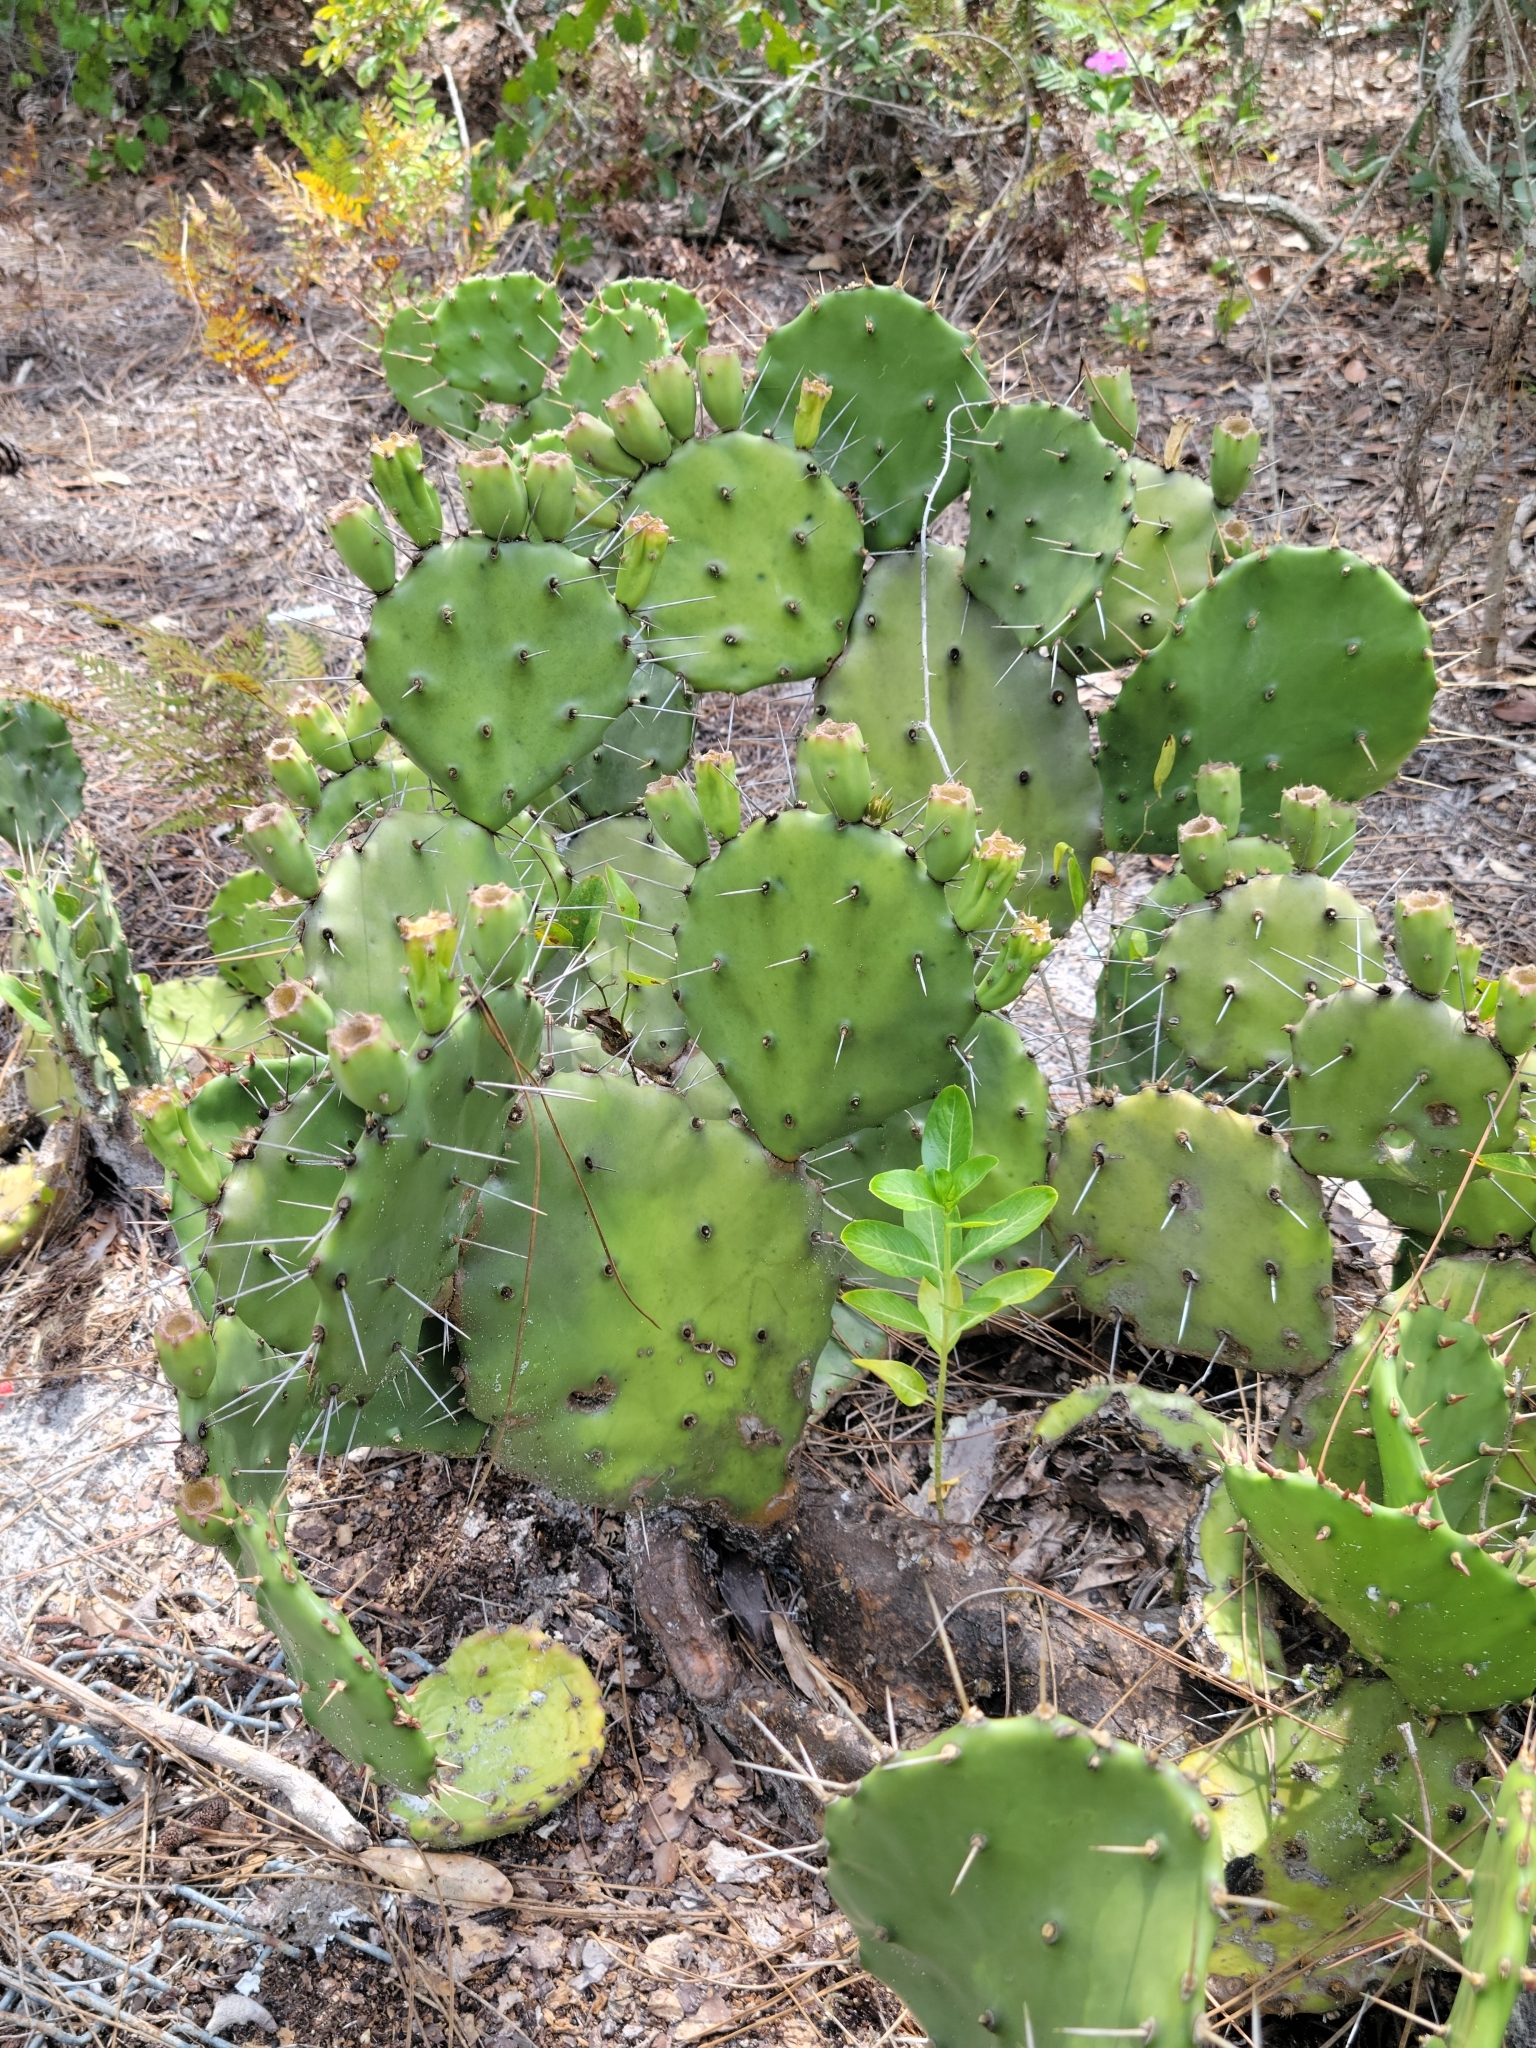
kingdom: Plantae
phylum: Tracheophyta
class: Magnoliopsida
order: Caryophyllales
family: Cactaceae
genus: Opuntia
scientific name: Opuntia austrina
